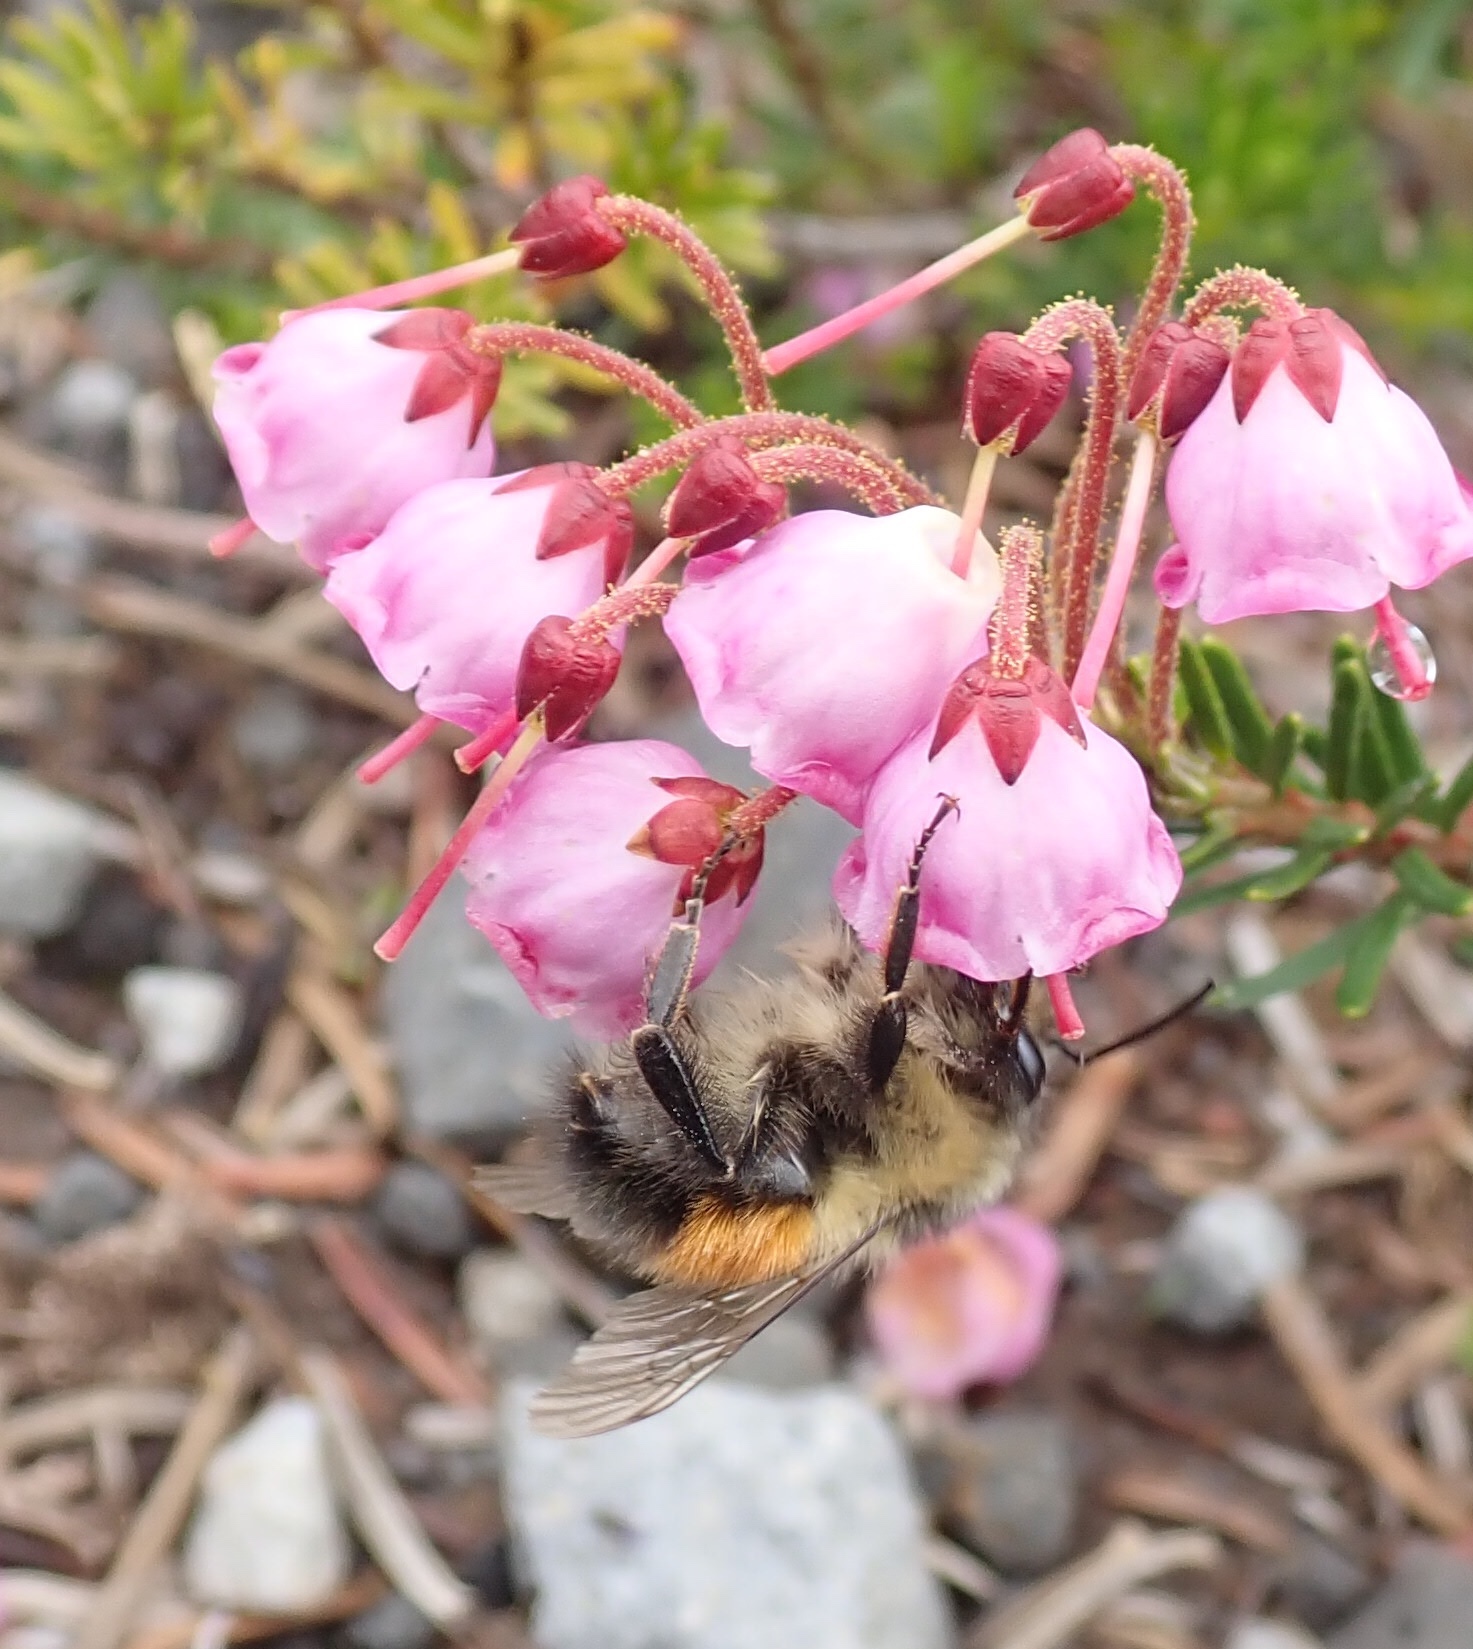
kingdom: Animalia
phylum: Arthropoda
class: Insecta
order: Hymenoptera
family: Apidae
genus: Bombus
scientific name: Bombus melanopygus
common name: Black tail bumble bee
